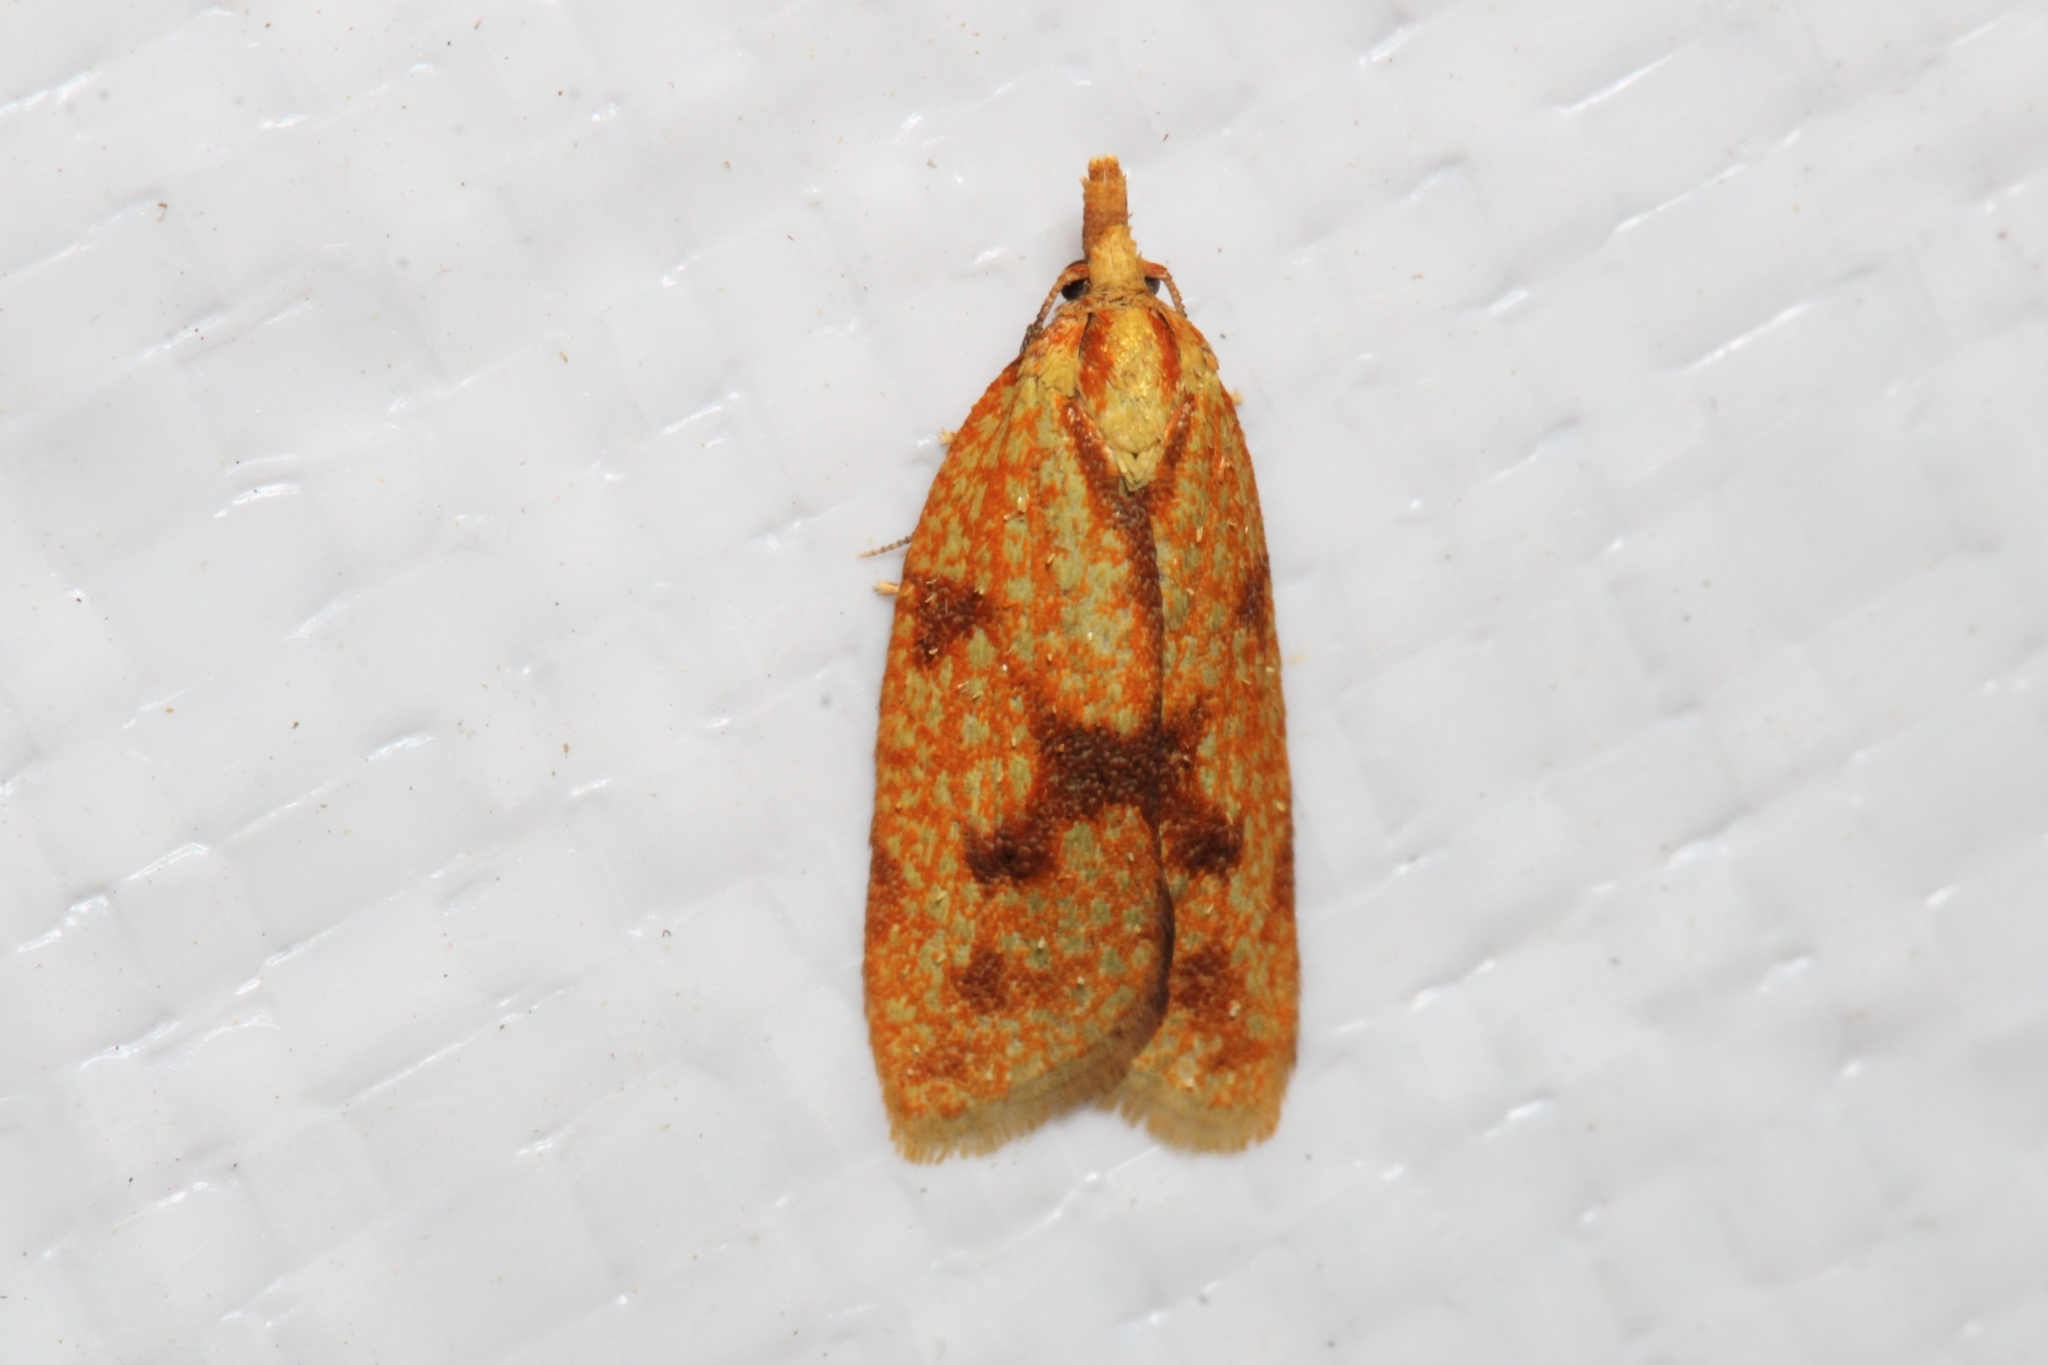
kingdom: Animalia
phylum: Arthropoda
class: Insecta
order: Lepidoptera
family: Tortricidae
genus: Sparganothis
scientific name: Sparganothis sulfureana
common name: Sparganothis fruitworm moth
